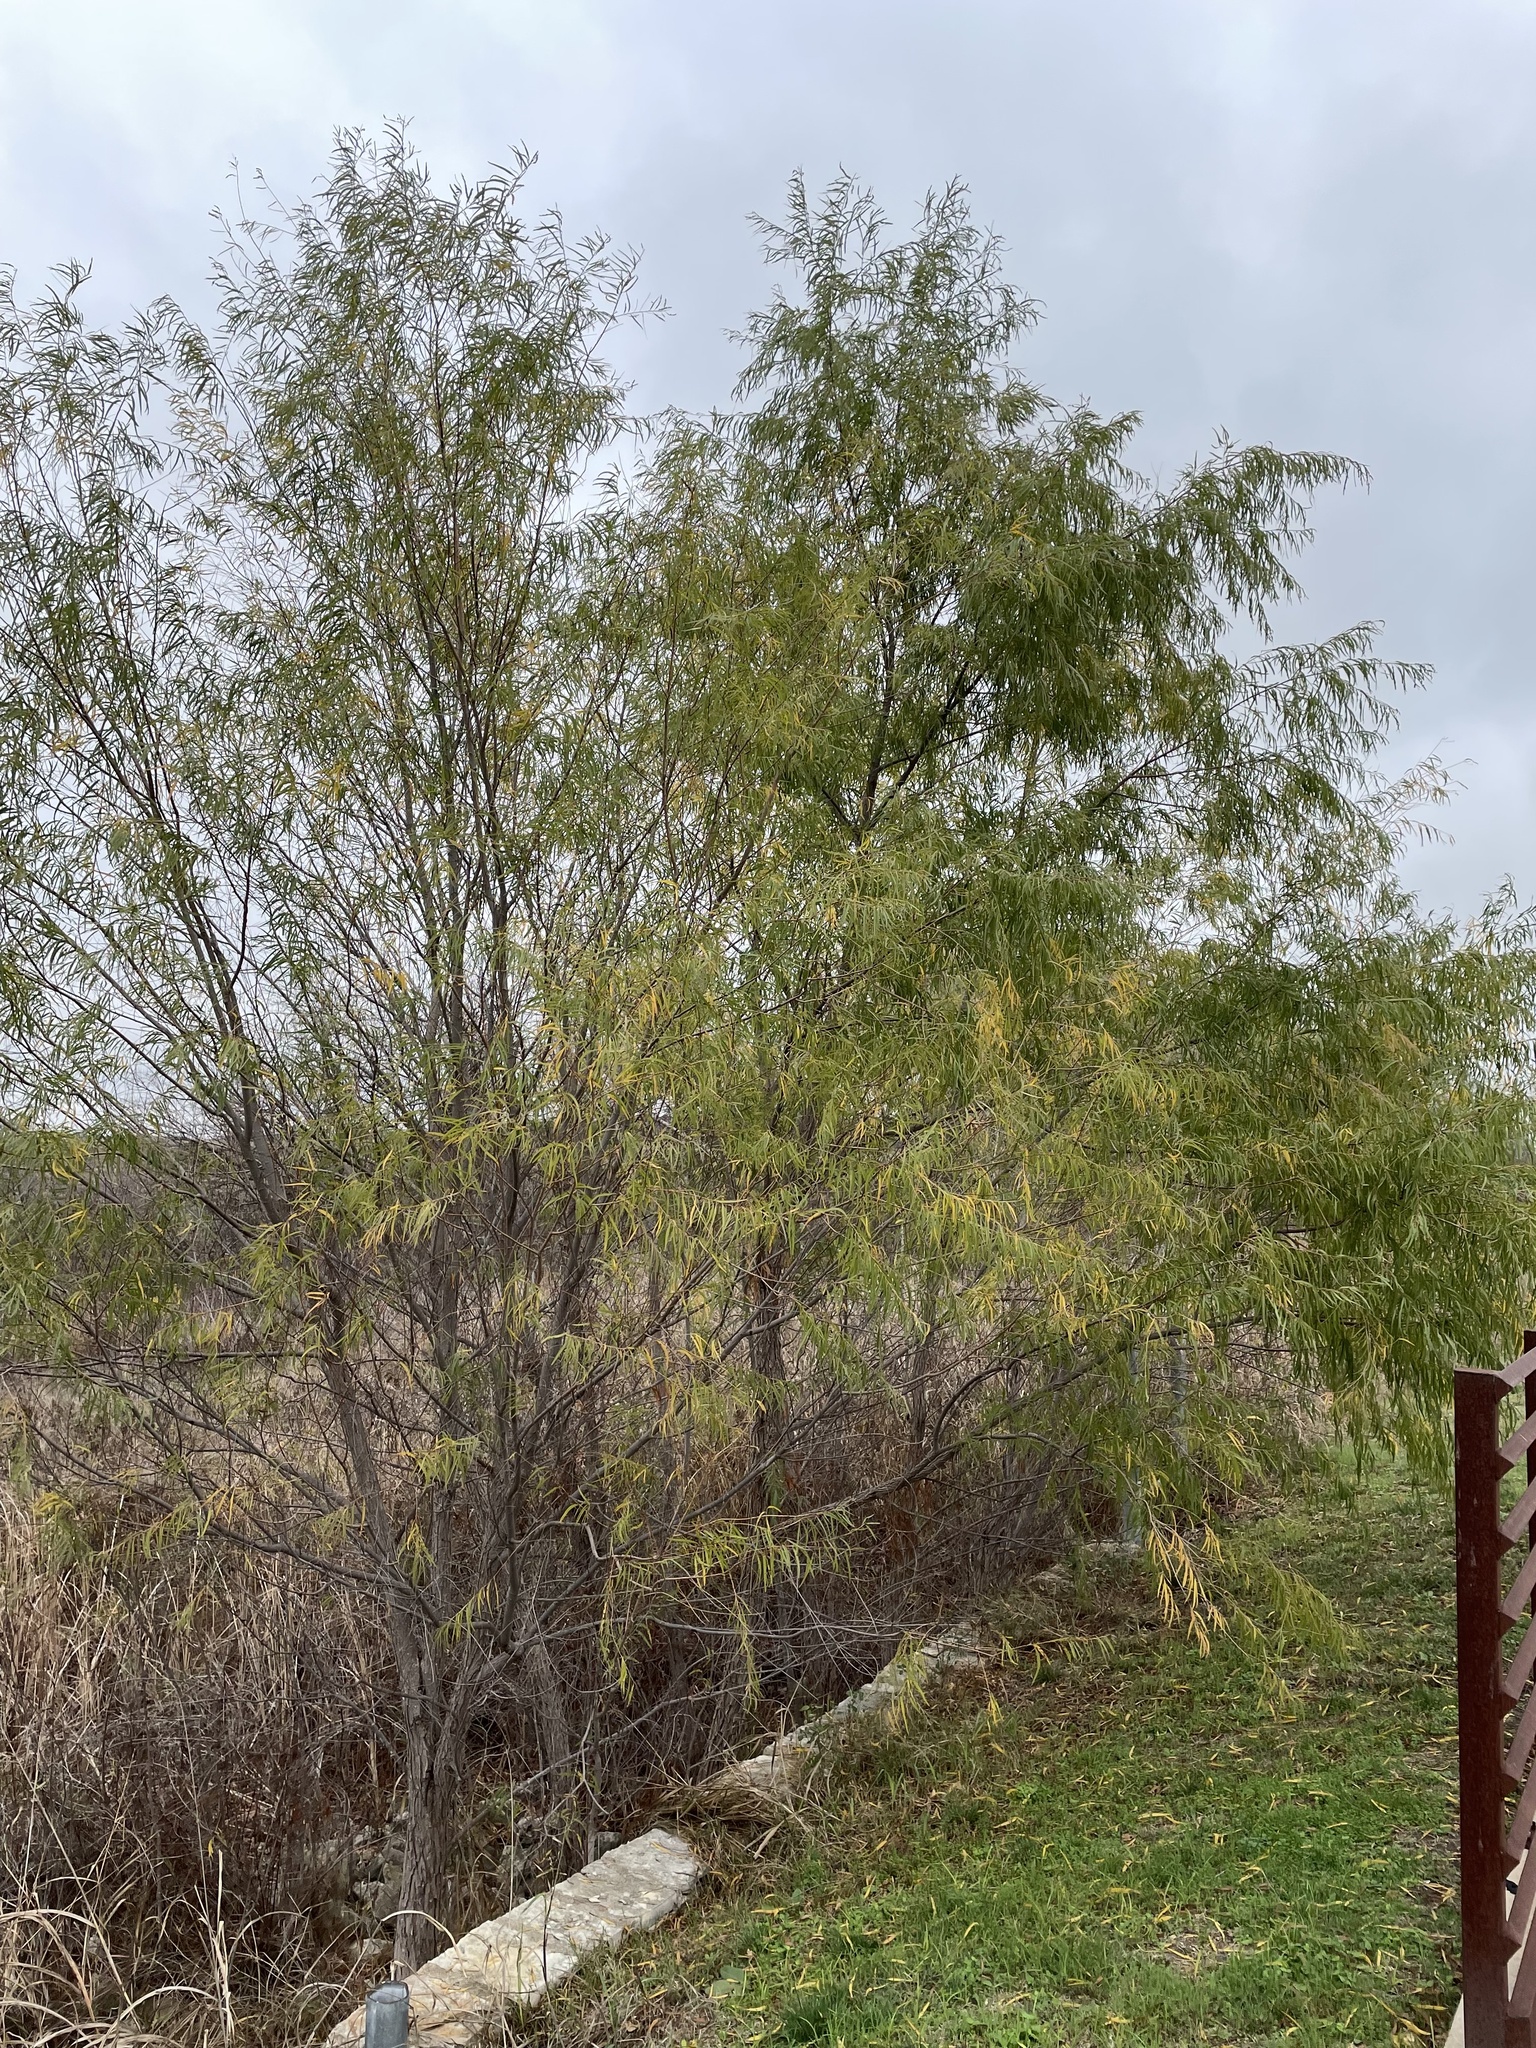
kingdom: Plantae
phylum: Tracheophyta
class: Magnoliopsida
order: Malpighiales
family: Salicaceae
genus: Salix
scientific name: Salix nigra
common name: Black willow
